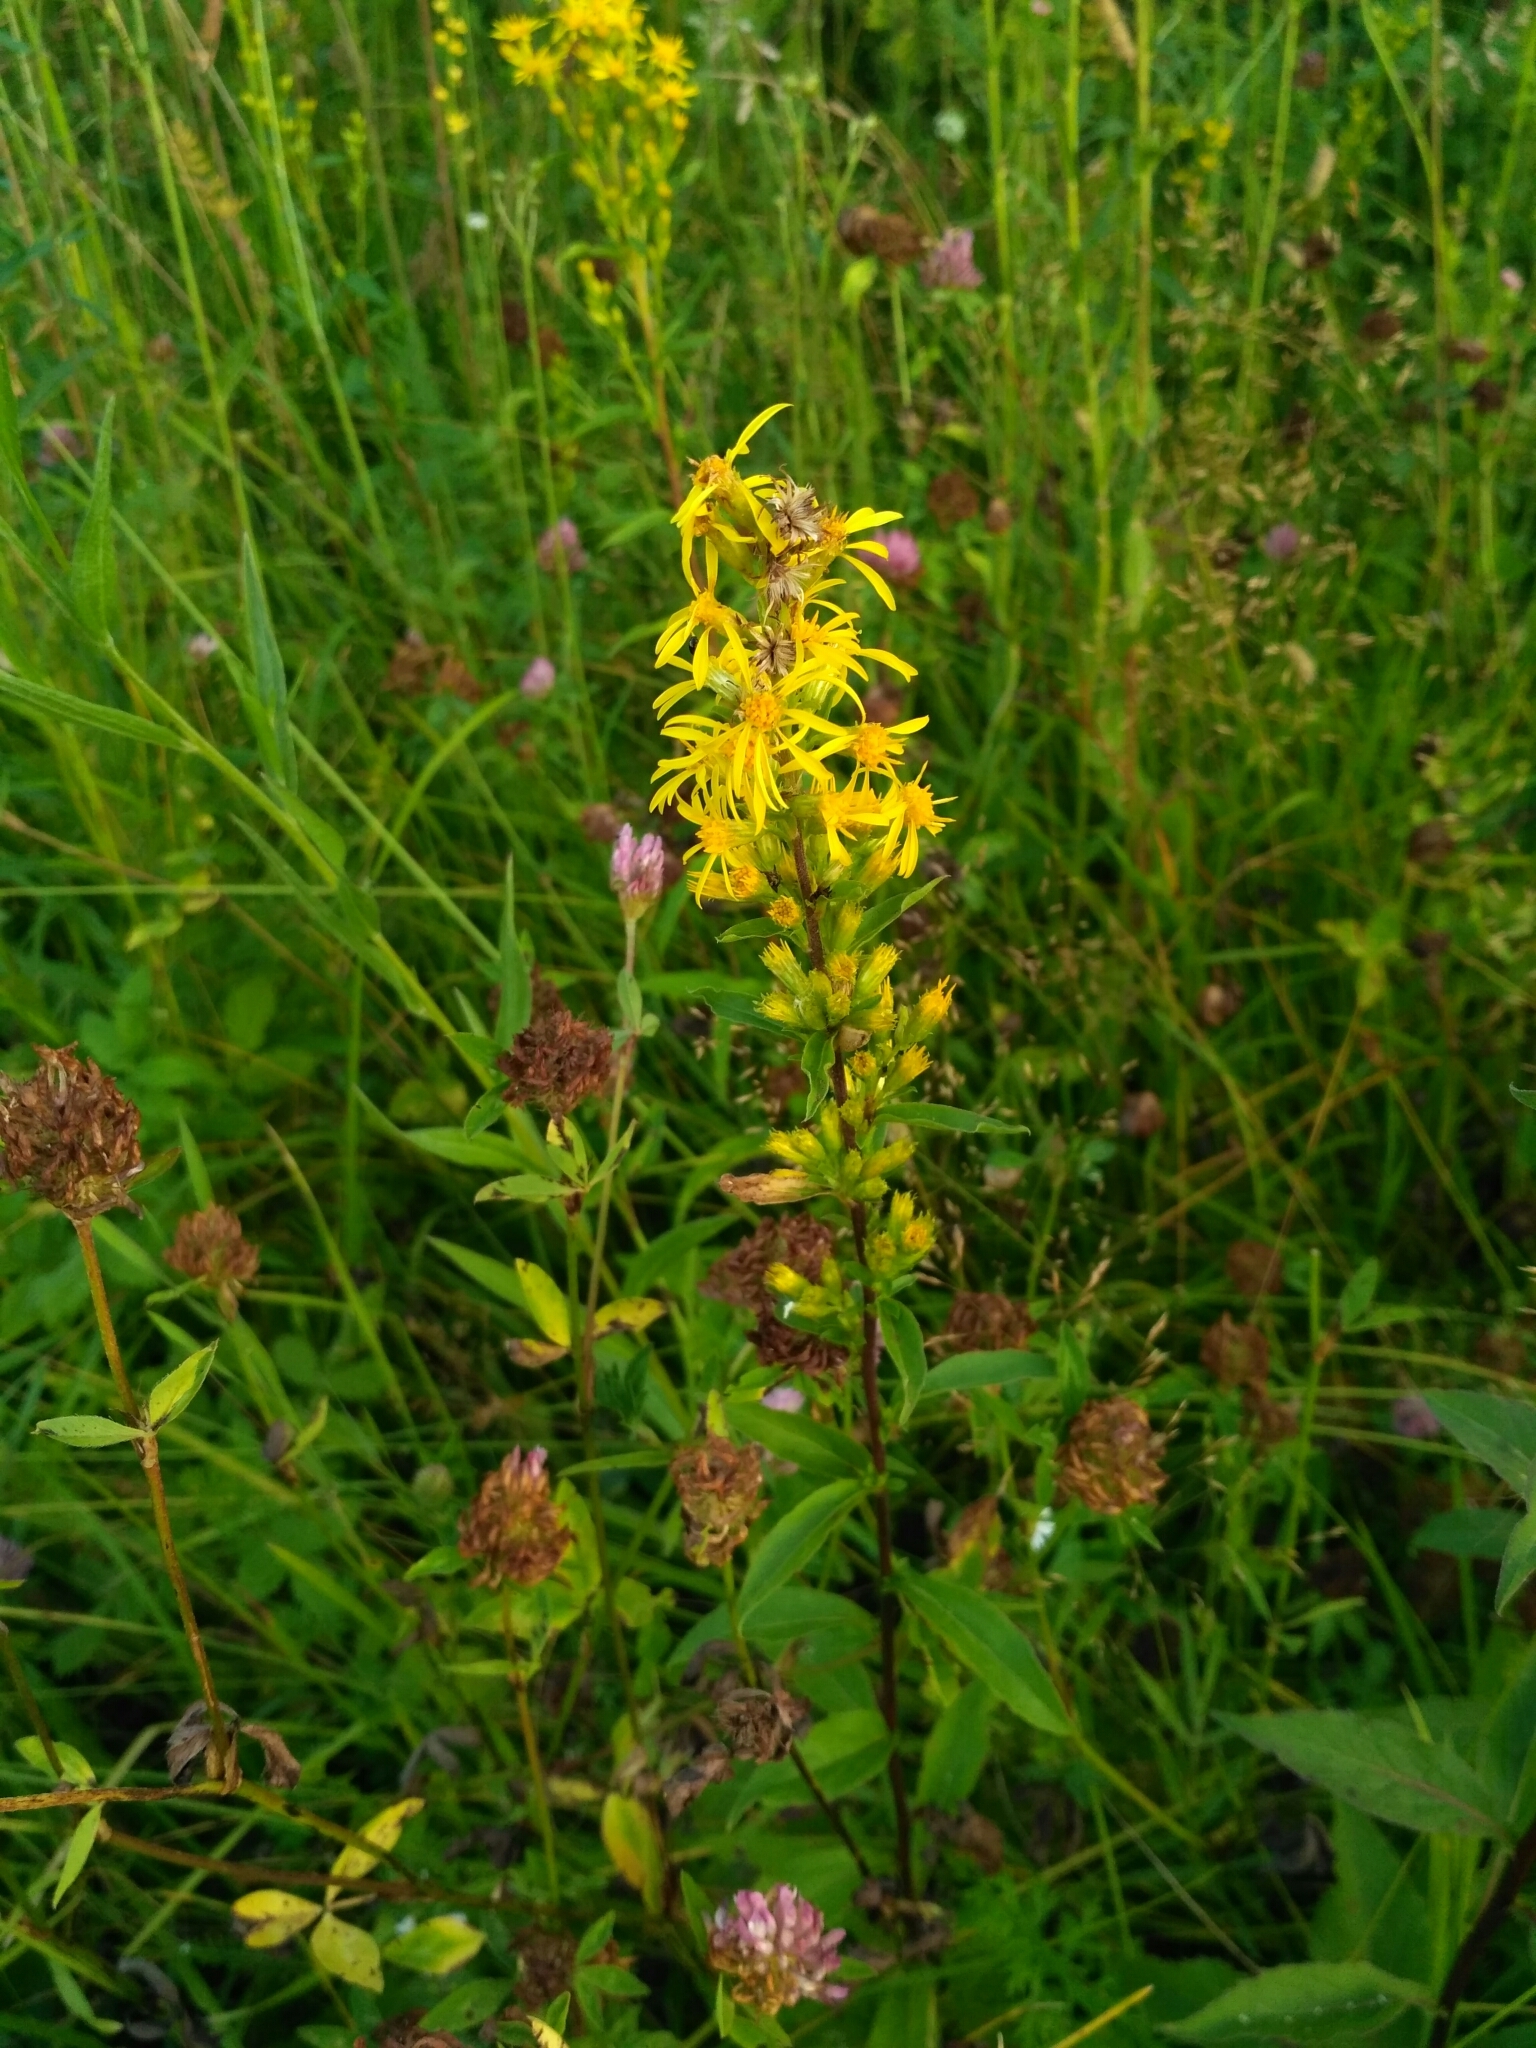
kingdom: Plantae
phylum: Tracheophyta
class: Magnoliopsida
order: Asterales
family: Asteraceae
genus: Solidago
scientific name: Solidago virgaurea
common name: Goldenrod
